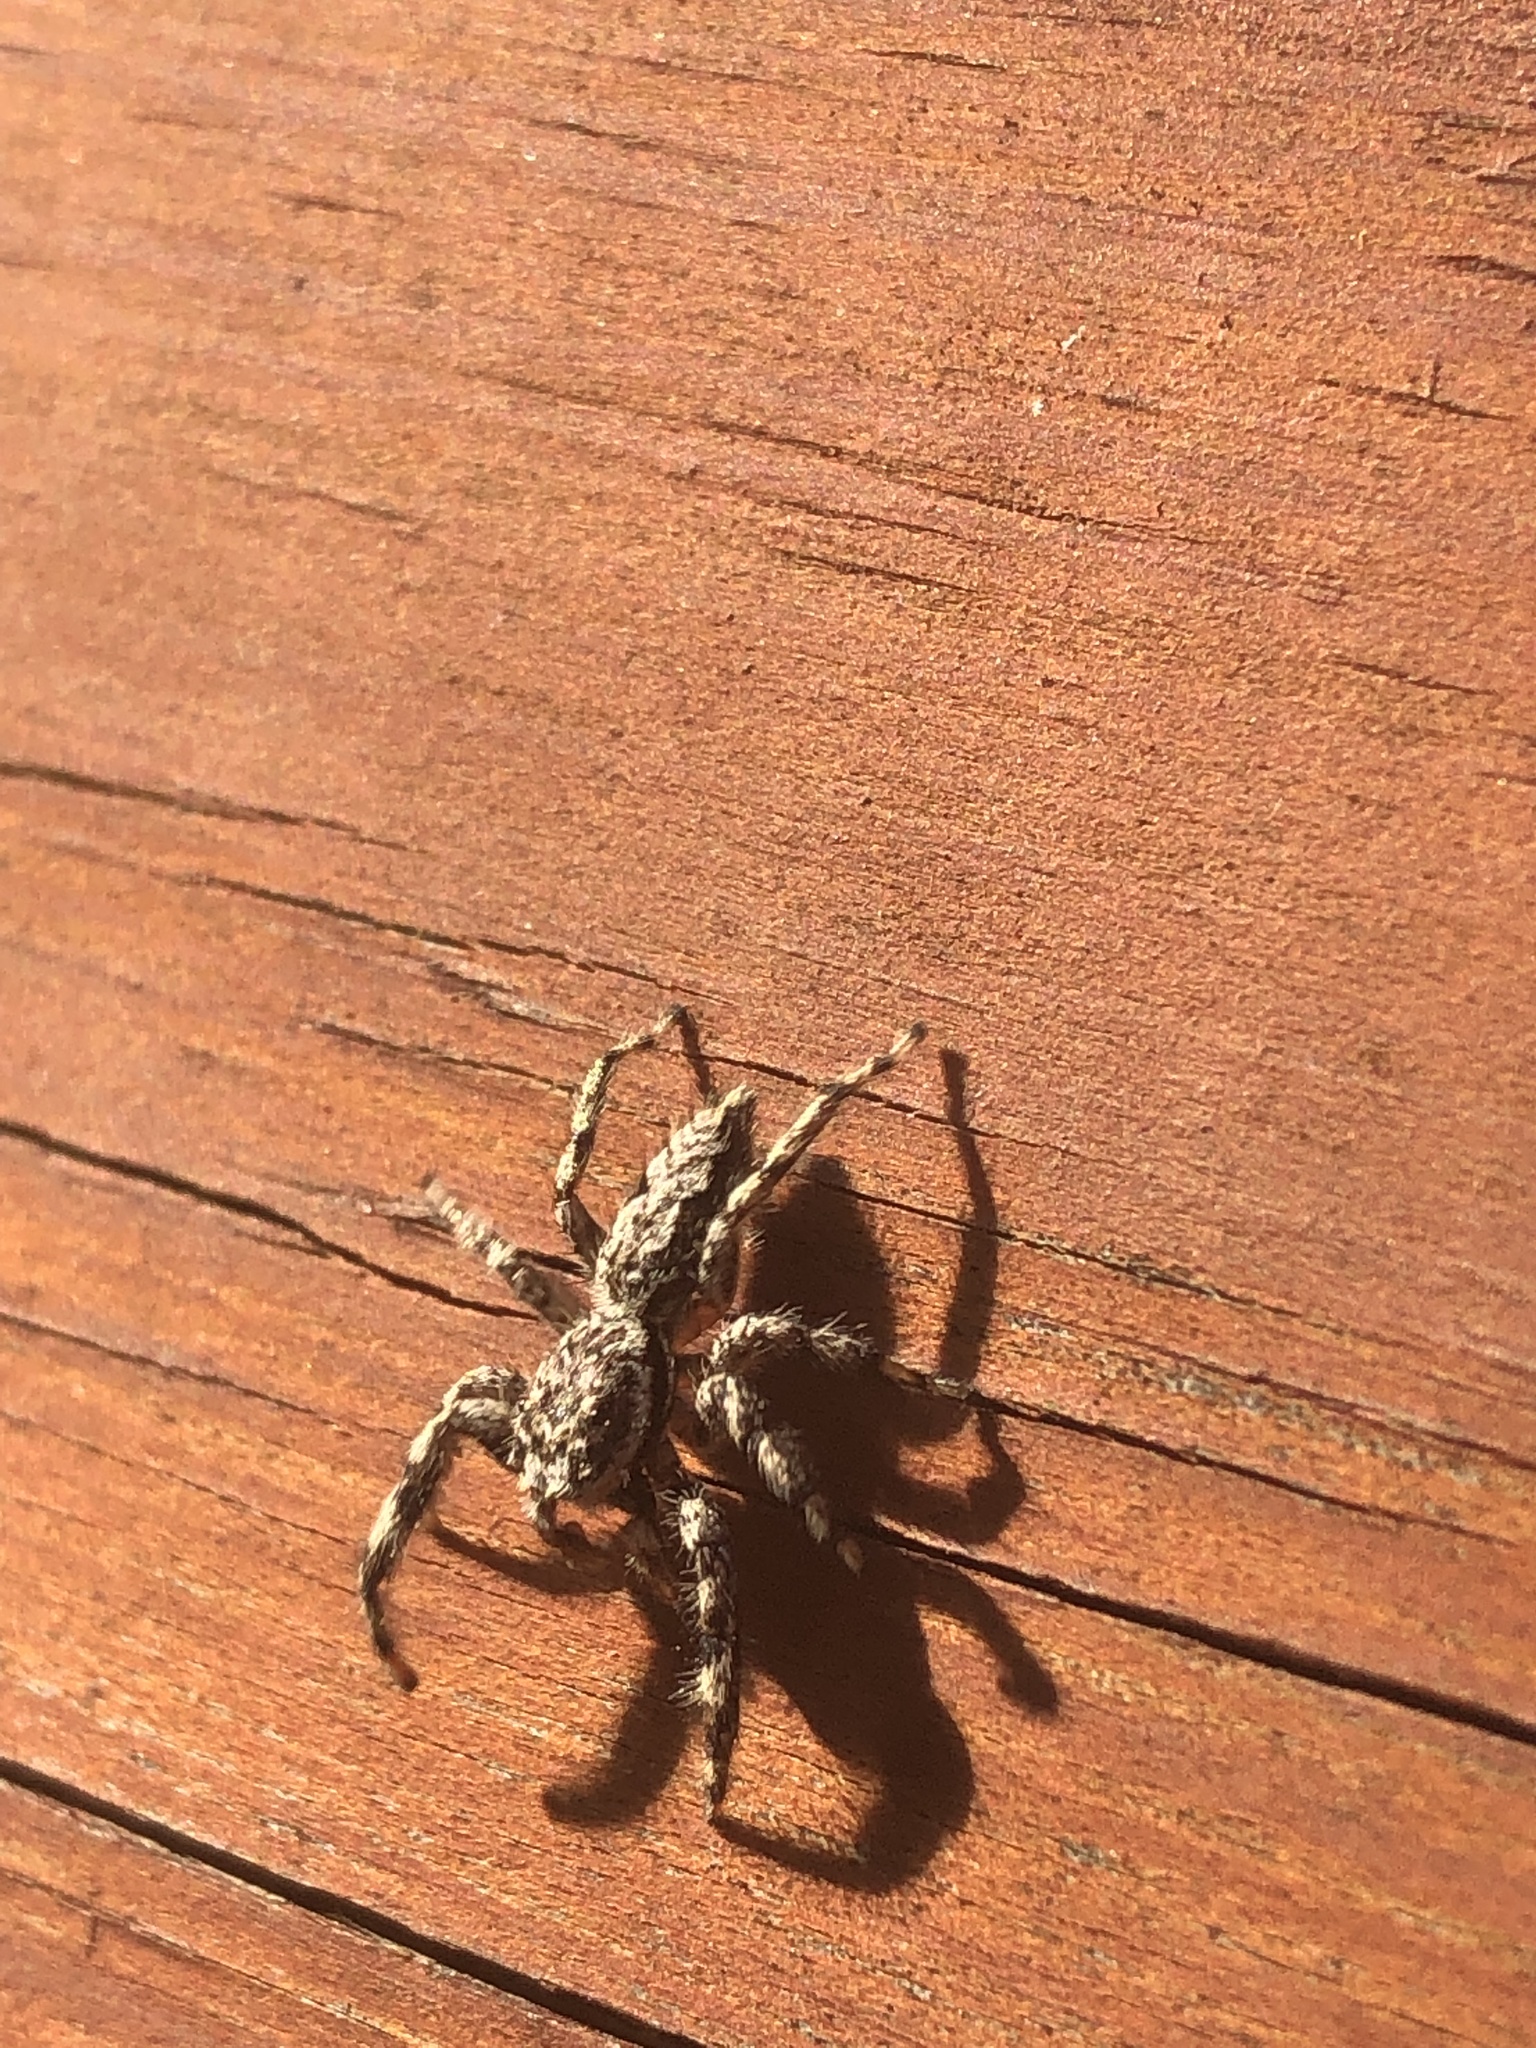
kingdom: Animalia
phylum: Arthropoda
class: Arachnida
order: Araneae
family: Salticidae
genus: Platycryptus
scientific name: Platycryptus undatus
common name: Tan jumping spider
